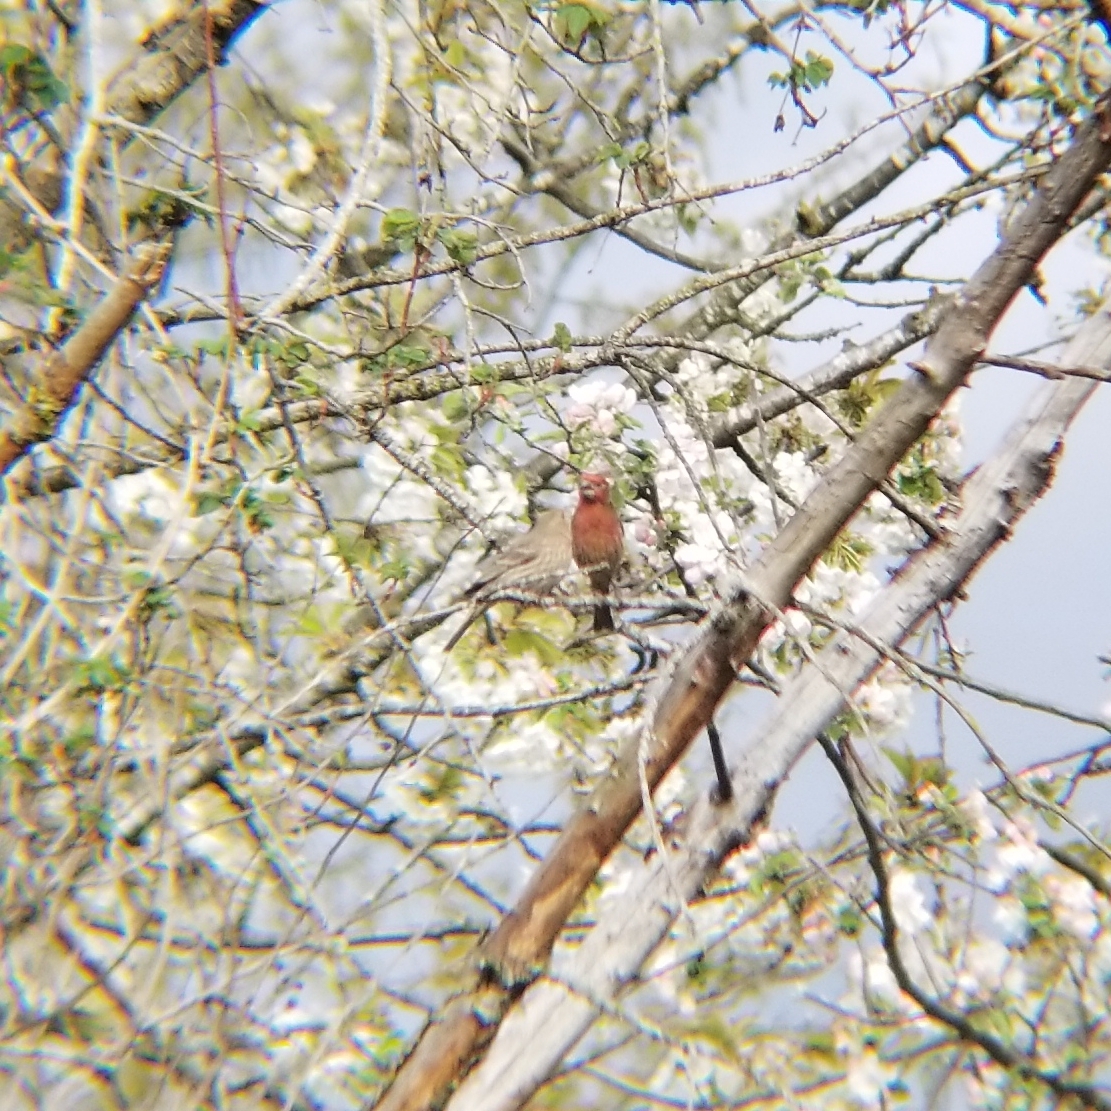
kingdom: Animalia
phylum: Chordata
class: Aves
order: Passeriformes
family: Fringillidae
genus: Haemorhous
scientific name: Haemorhous mexicanus
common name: House finch
